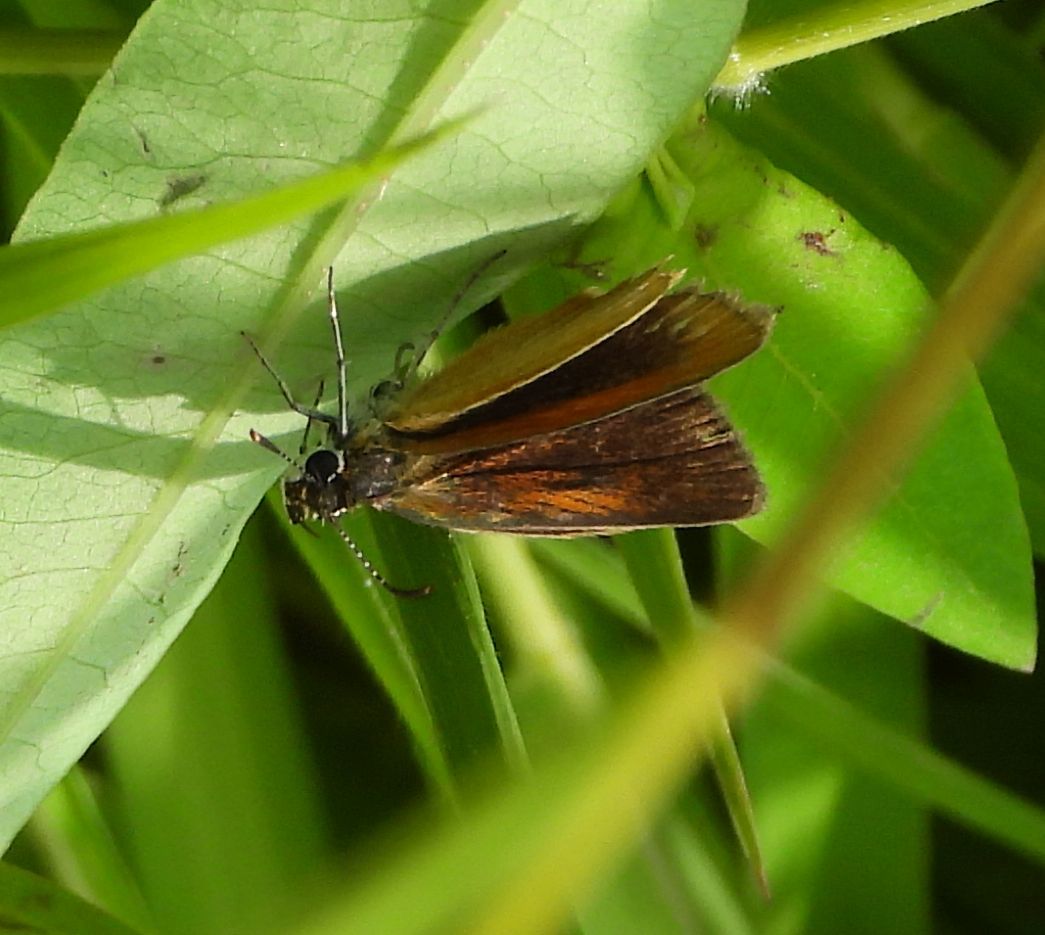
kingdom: Animalia
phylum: Arthropoda
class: Insecta
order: Lepidoptera
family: Hesperiidae
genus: Ancyloxypha
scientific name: Ancyloxypha numitor
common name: Least skipper
